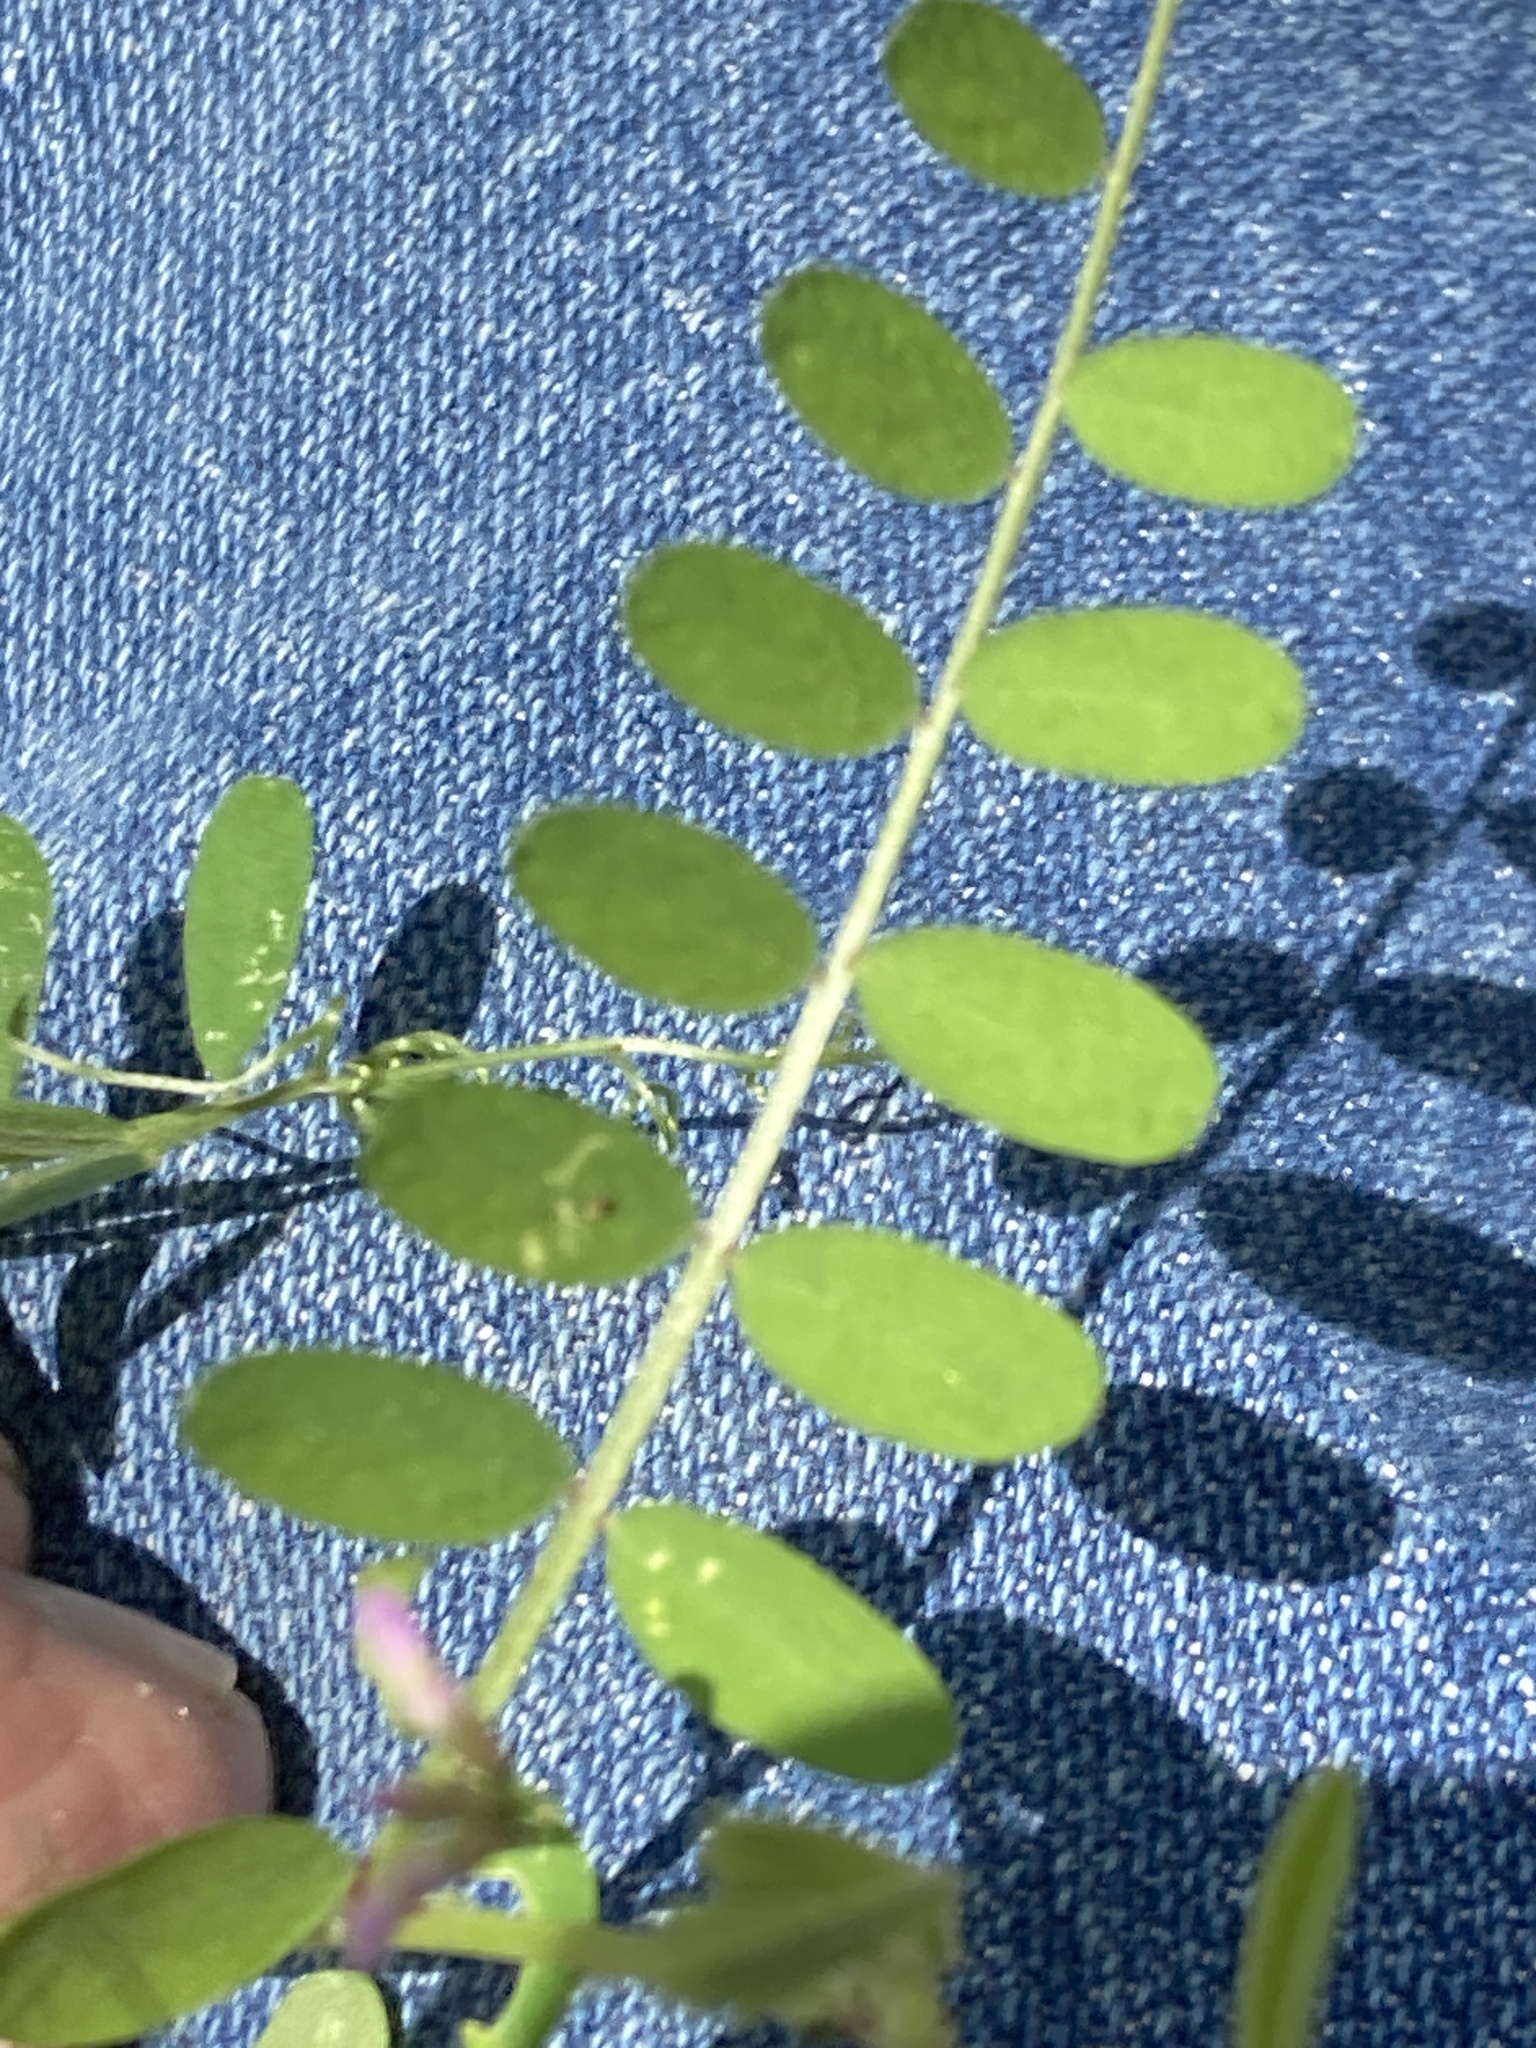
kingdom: Plantae
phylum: Tracheophyta
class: Magnoliopsida
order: Fabales
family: Fabaceae
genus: Vicia
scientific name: Vicia ludoviciana
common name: Louisiana vetch
